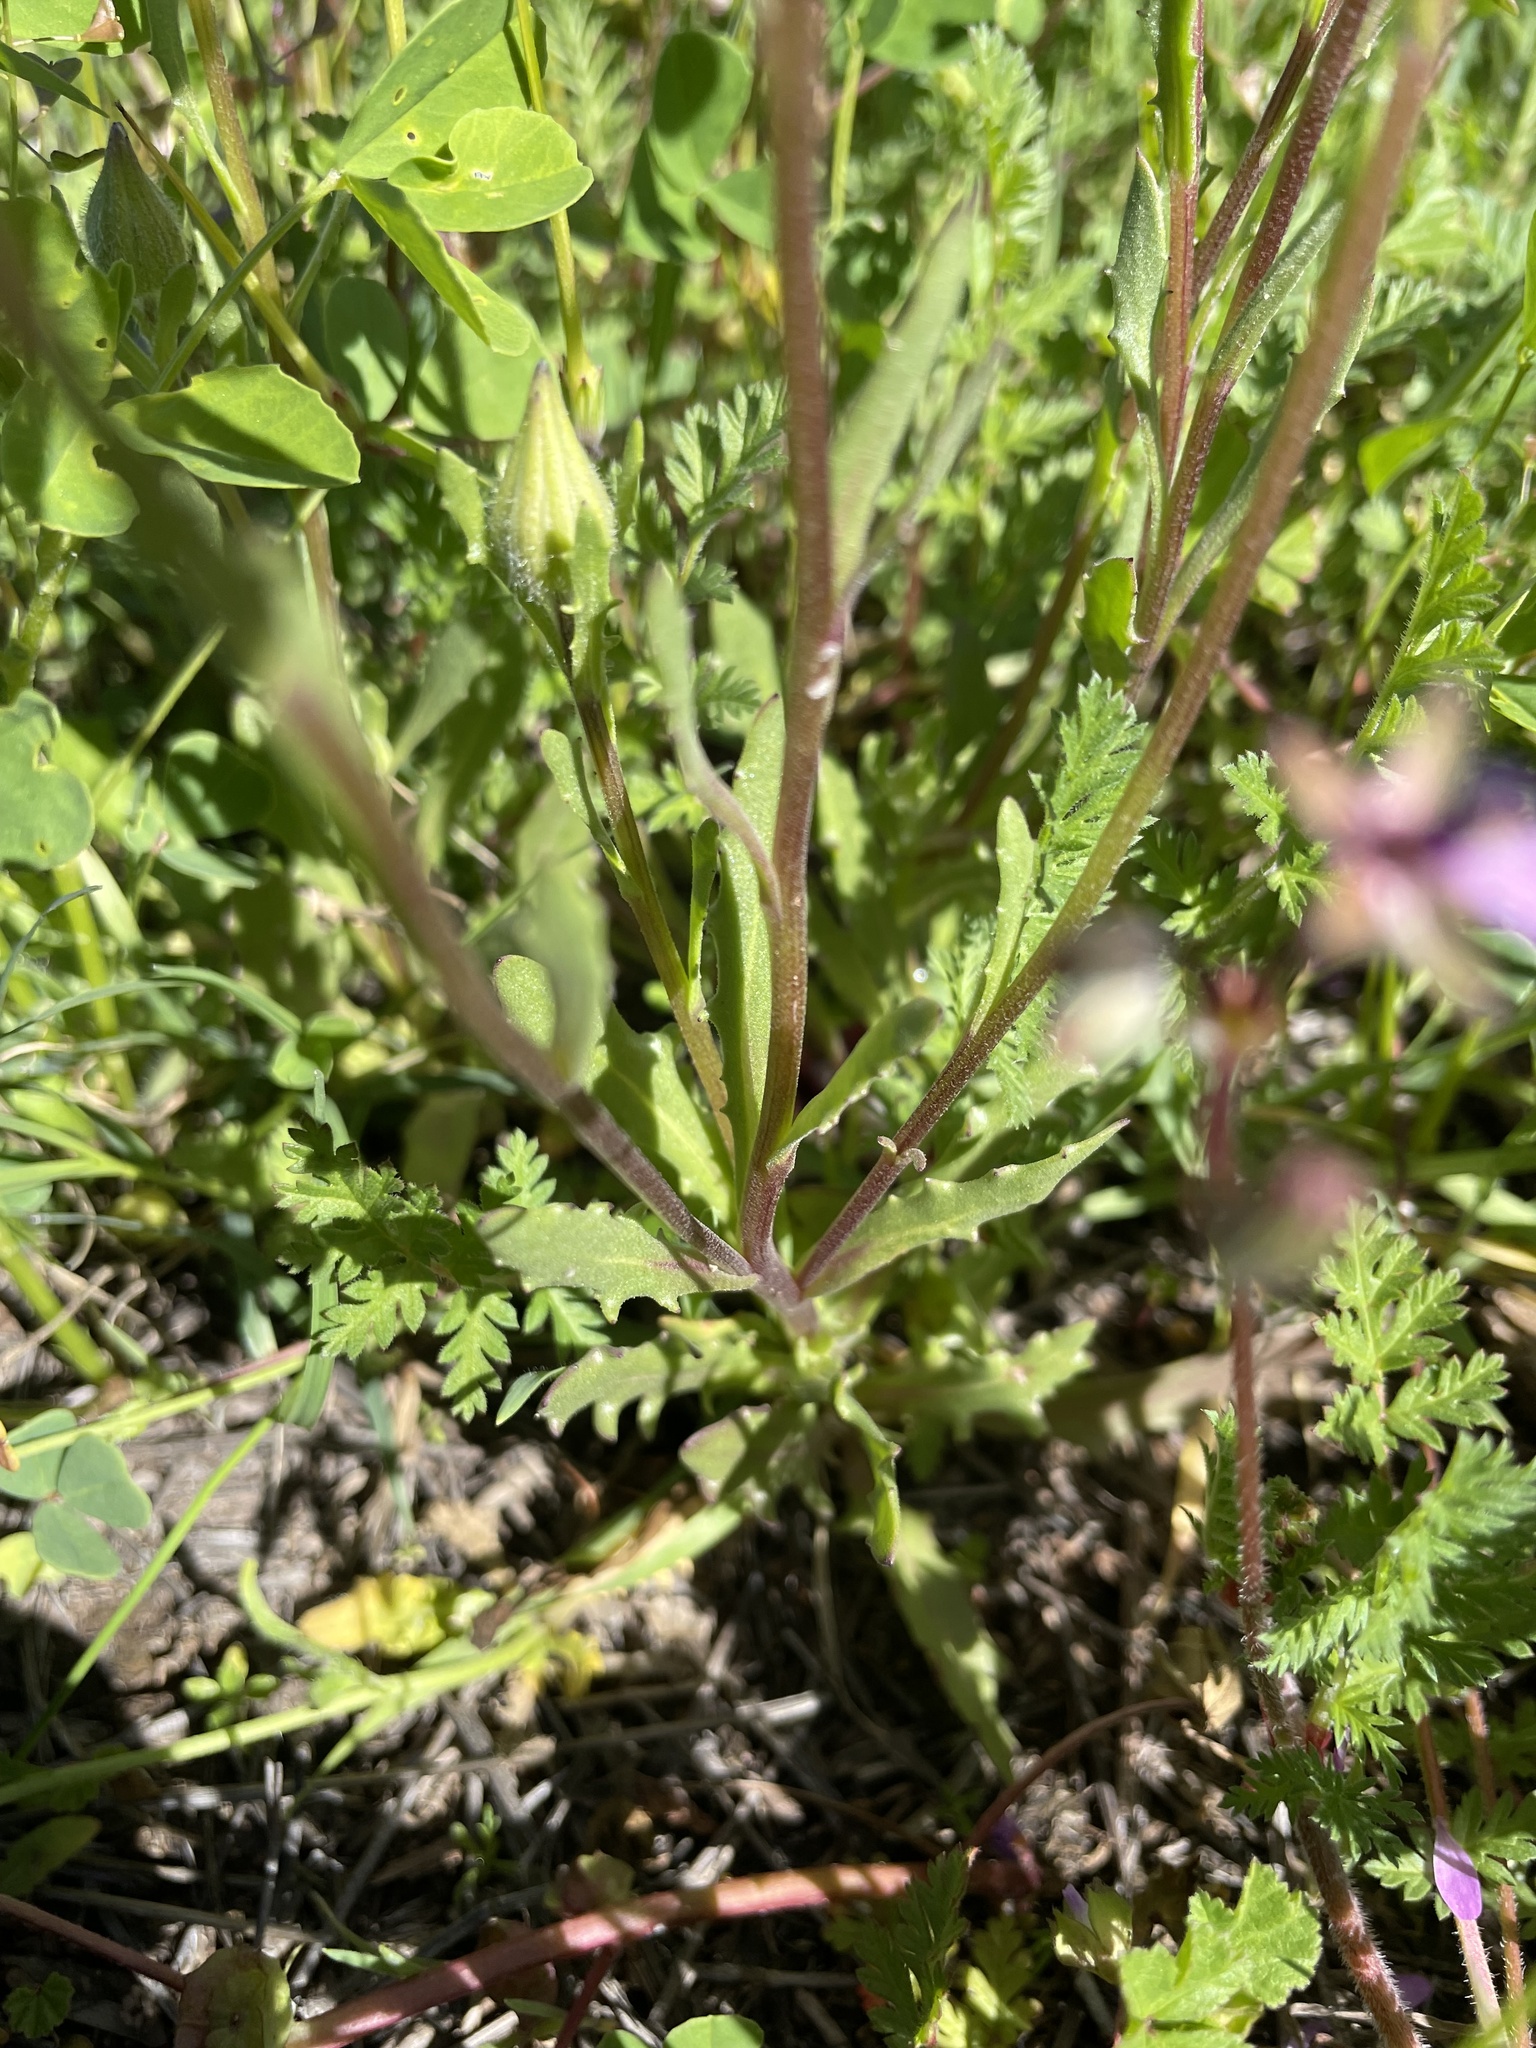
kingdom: Plantae
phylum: Tracheophyta
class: Magnoliopsida
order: Asterales
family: Asteraceae
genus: Dimorphotheca
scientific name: Dimorphotheca sinuata
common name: Glandular cape marigold
